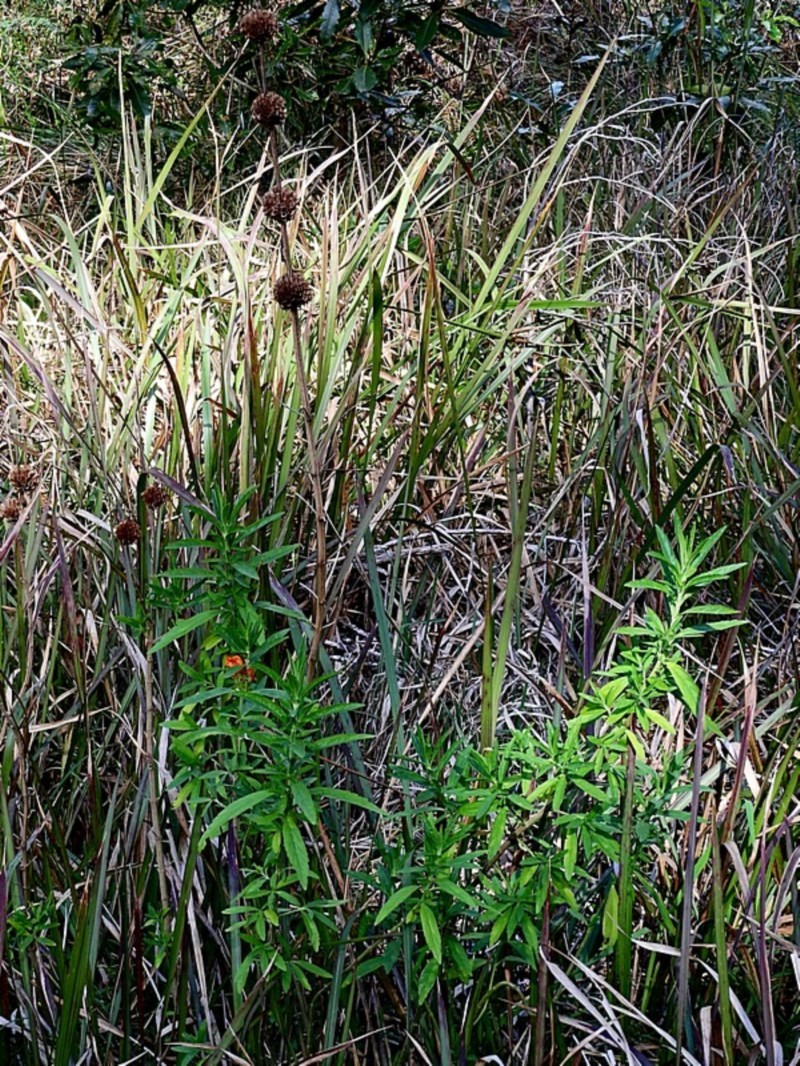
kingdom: Plantae
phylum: Tracheophyta
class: Magnoliopsida
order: Lamiales
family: Lamiaceae
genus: Leonotis
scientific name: Leonotis leonurus
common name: Lion's ear
